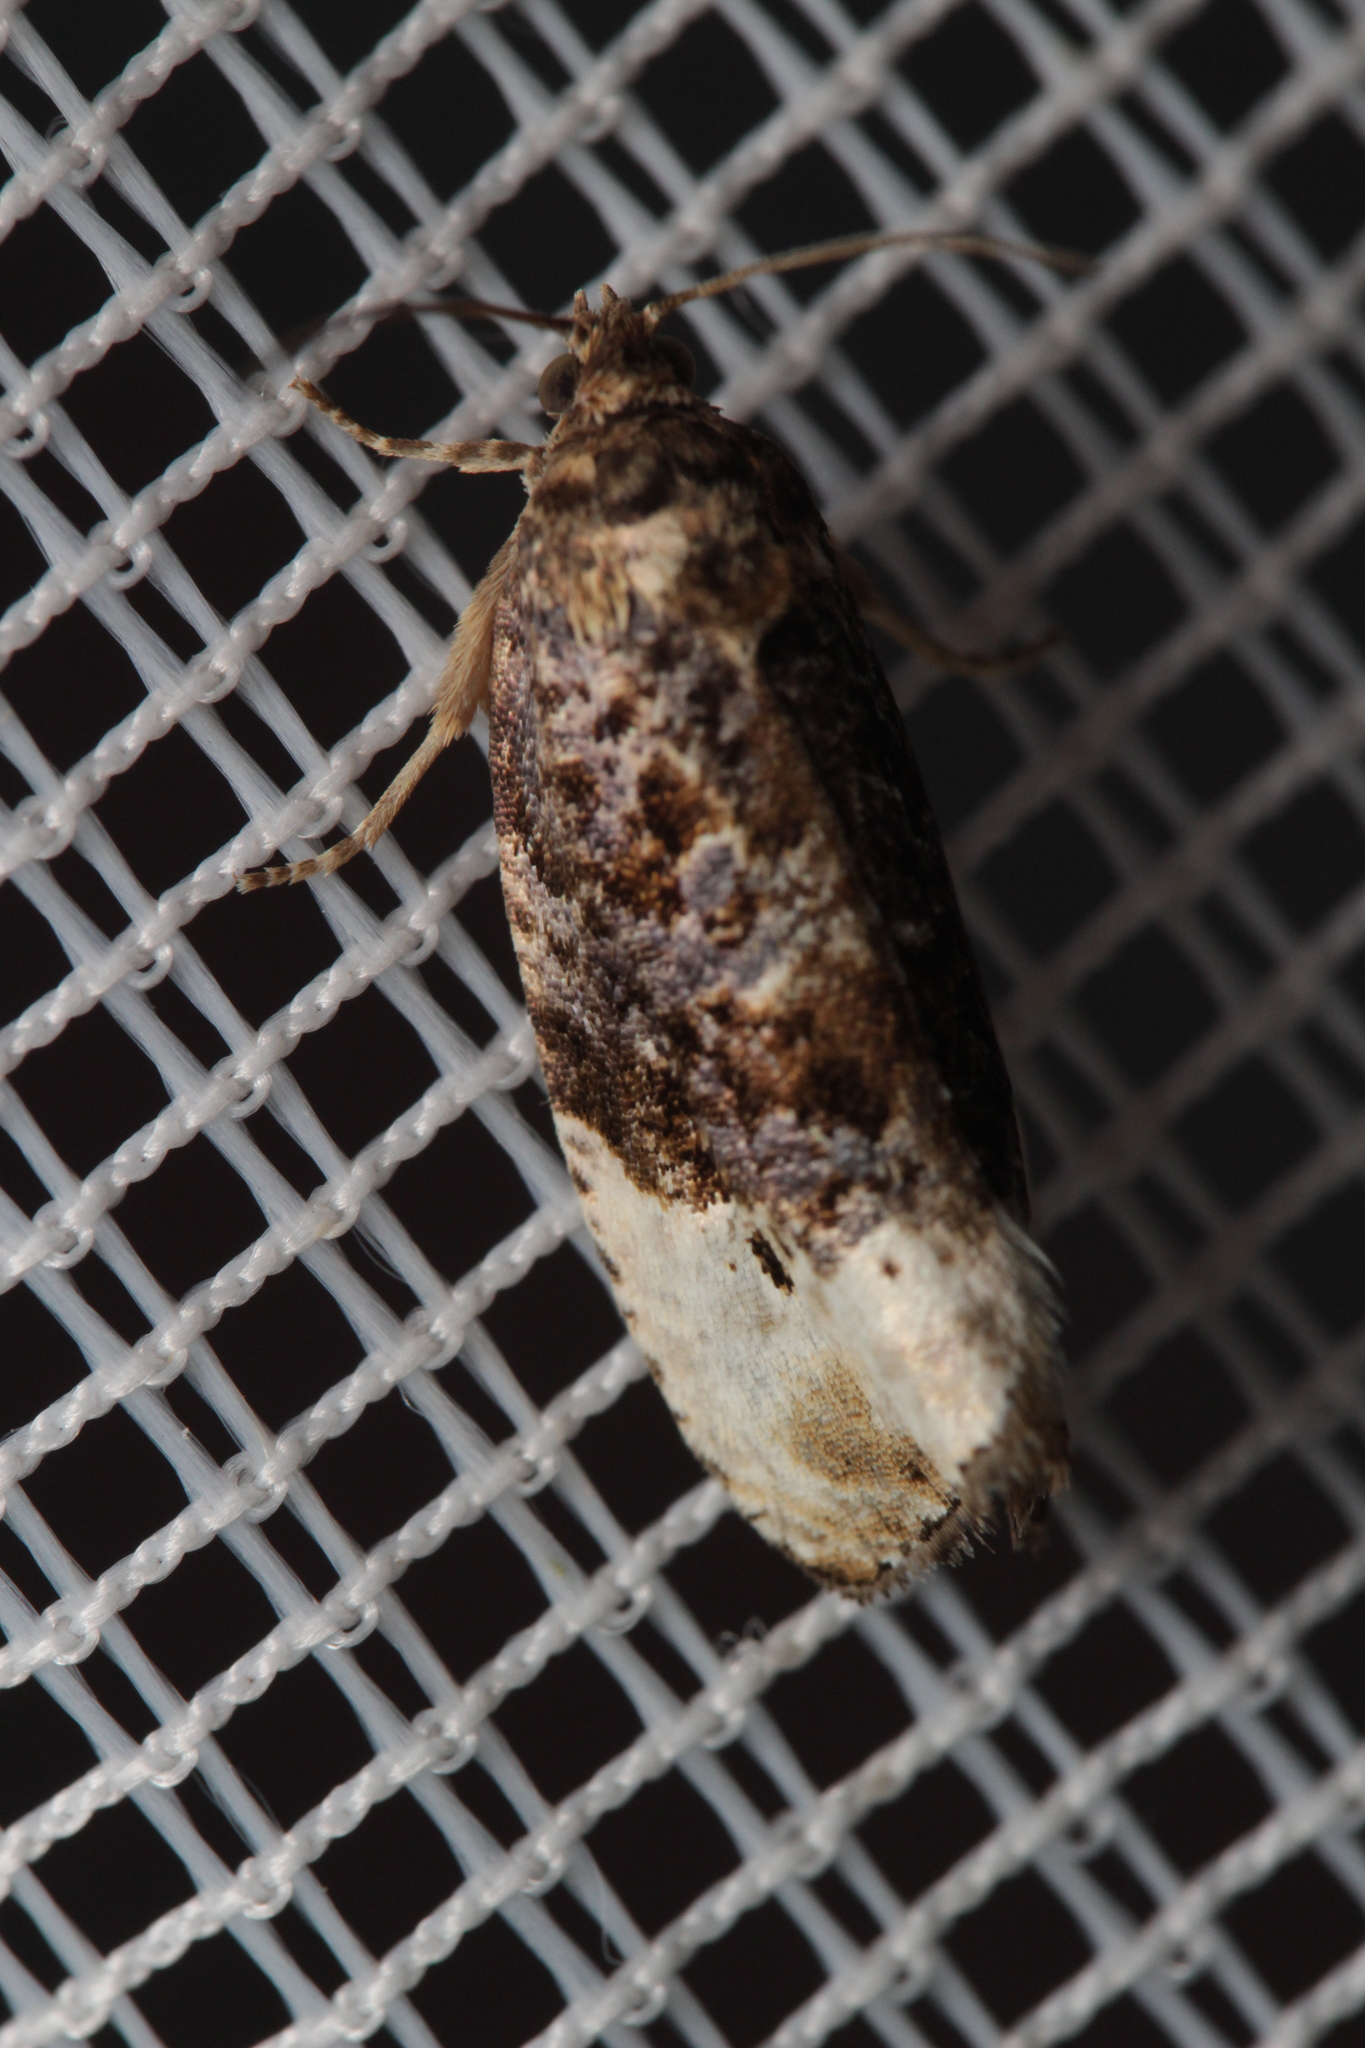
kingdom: Animalia
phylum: Arthropoda
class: Insecta
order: Lepidoptera
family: Tortricidae
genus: Hedya
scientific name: Hedya nubiferana
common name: Marbled orchard tortrix
